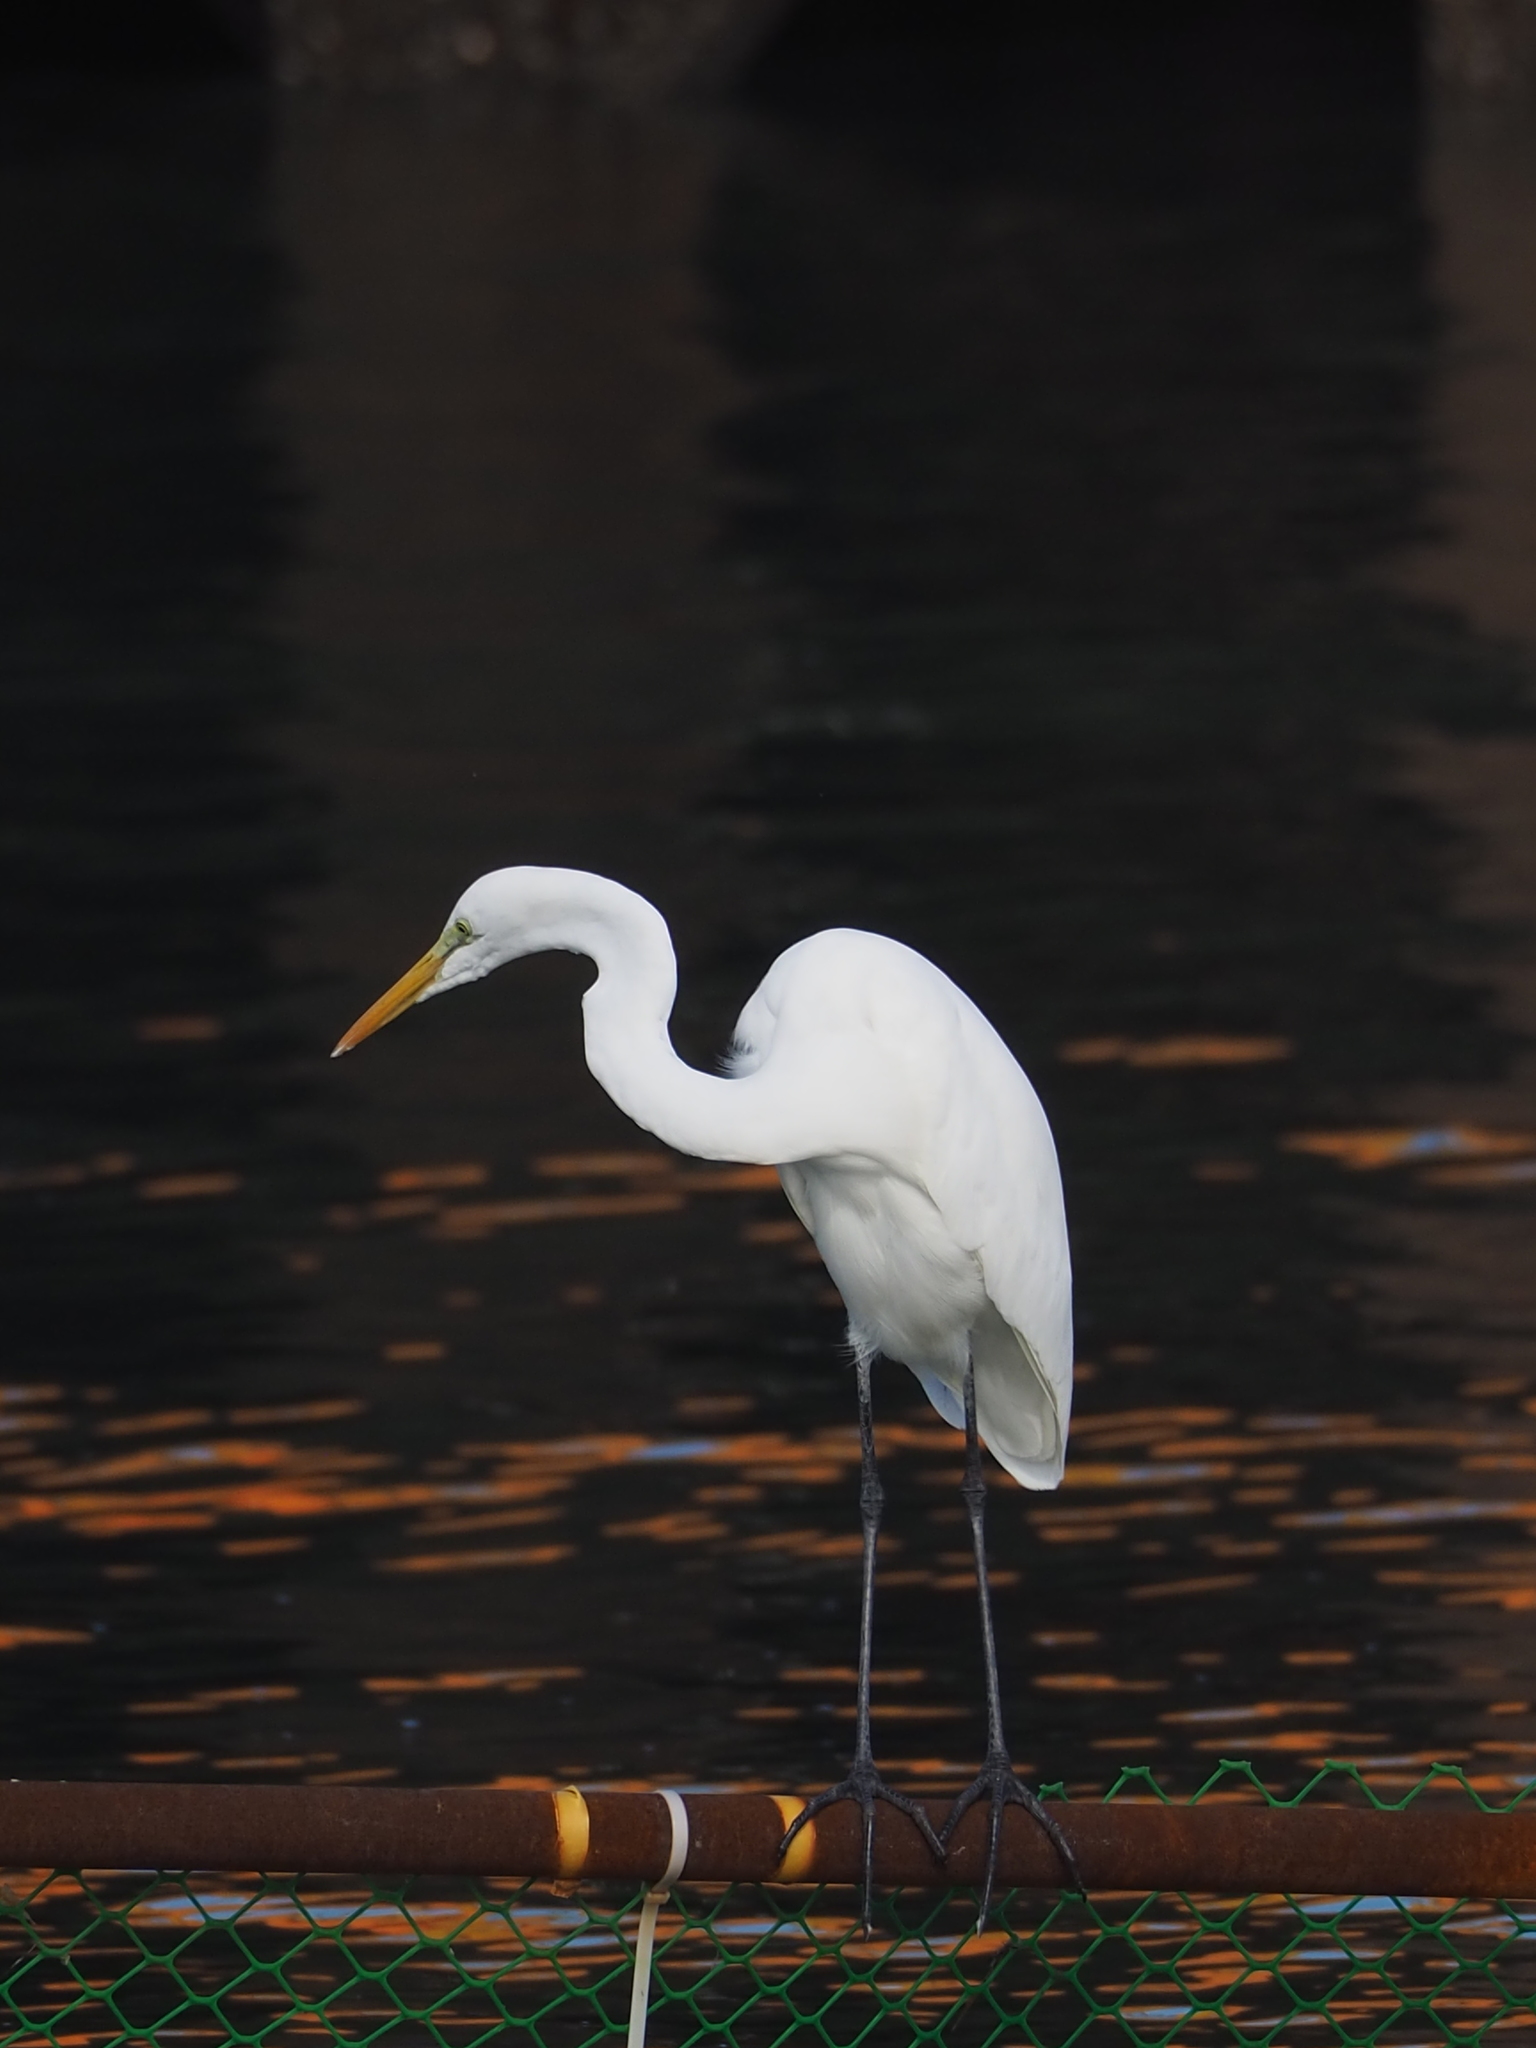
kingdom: Animalia
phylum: Chordata
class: Aves
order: Pelecaniformes
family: Ardeidae
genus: Ardea
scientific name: Ardea alba
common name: Great egret
